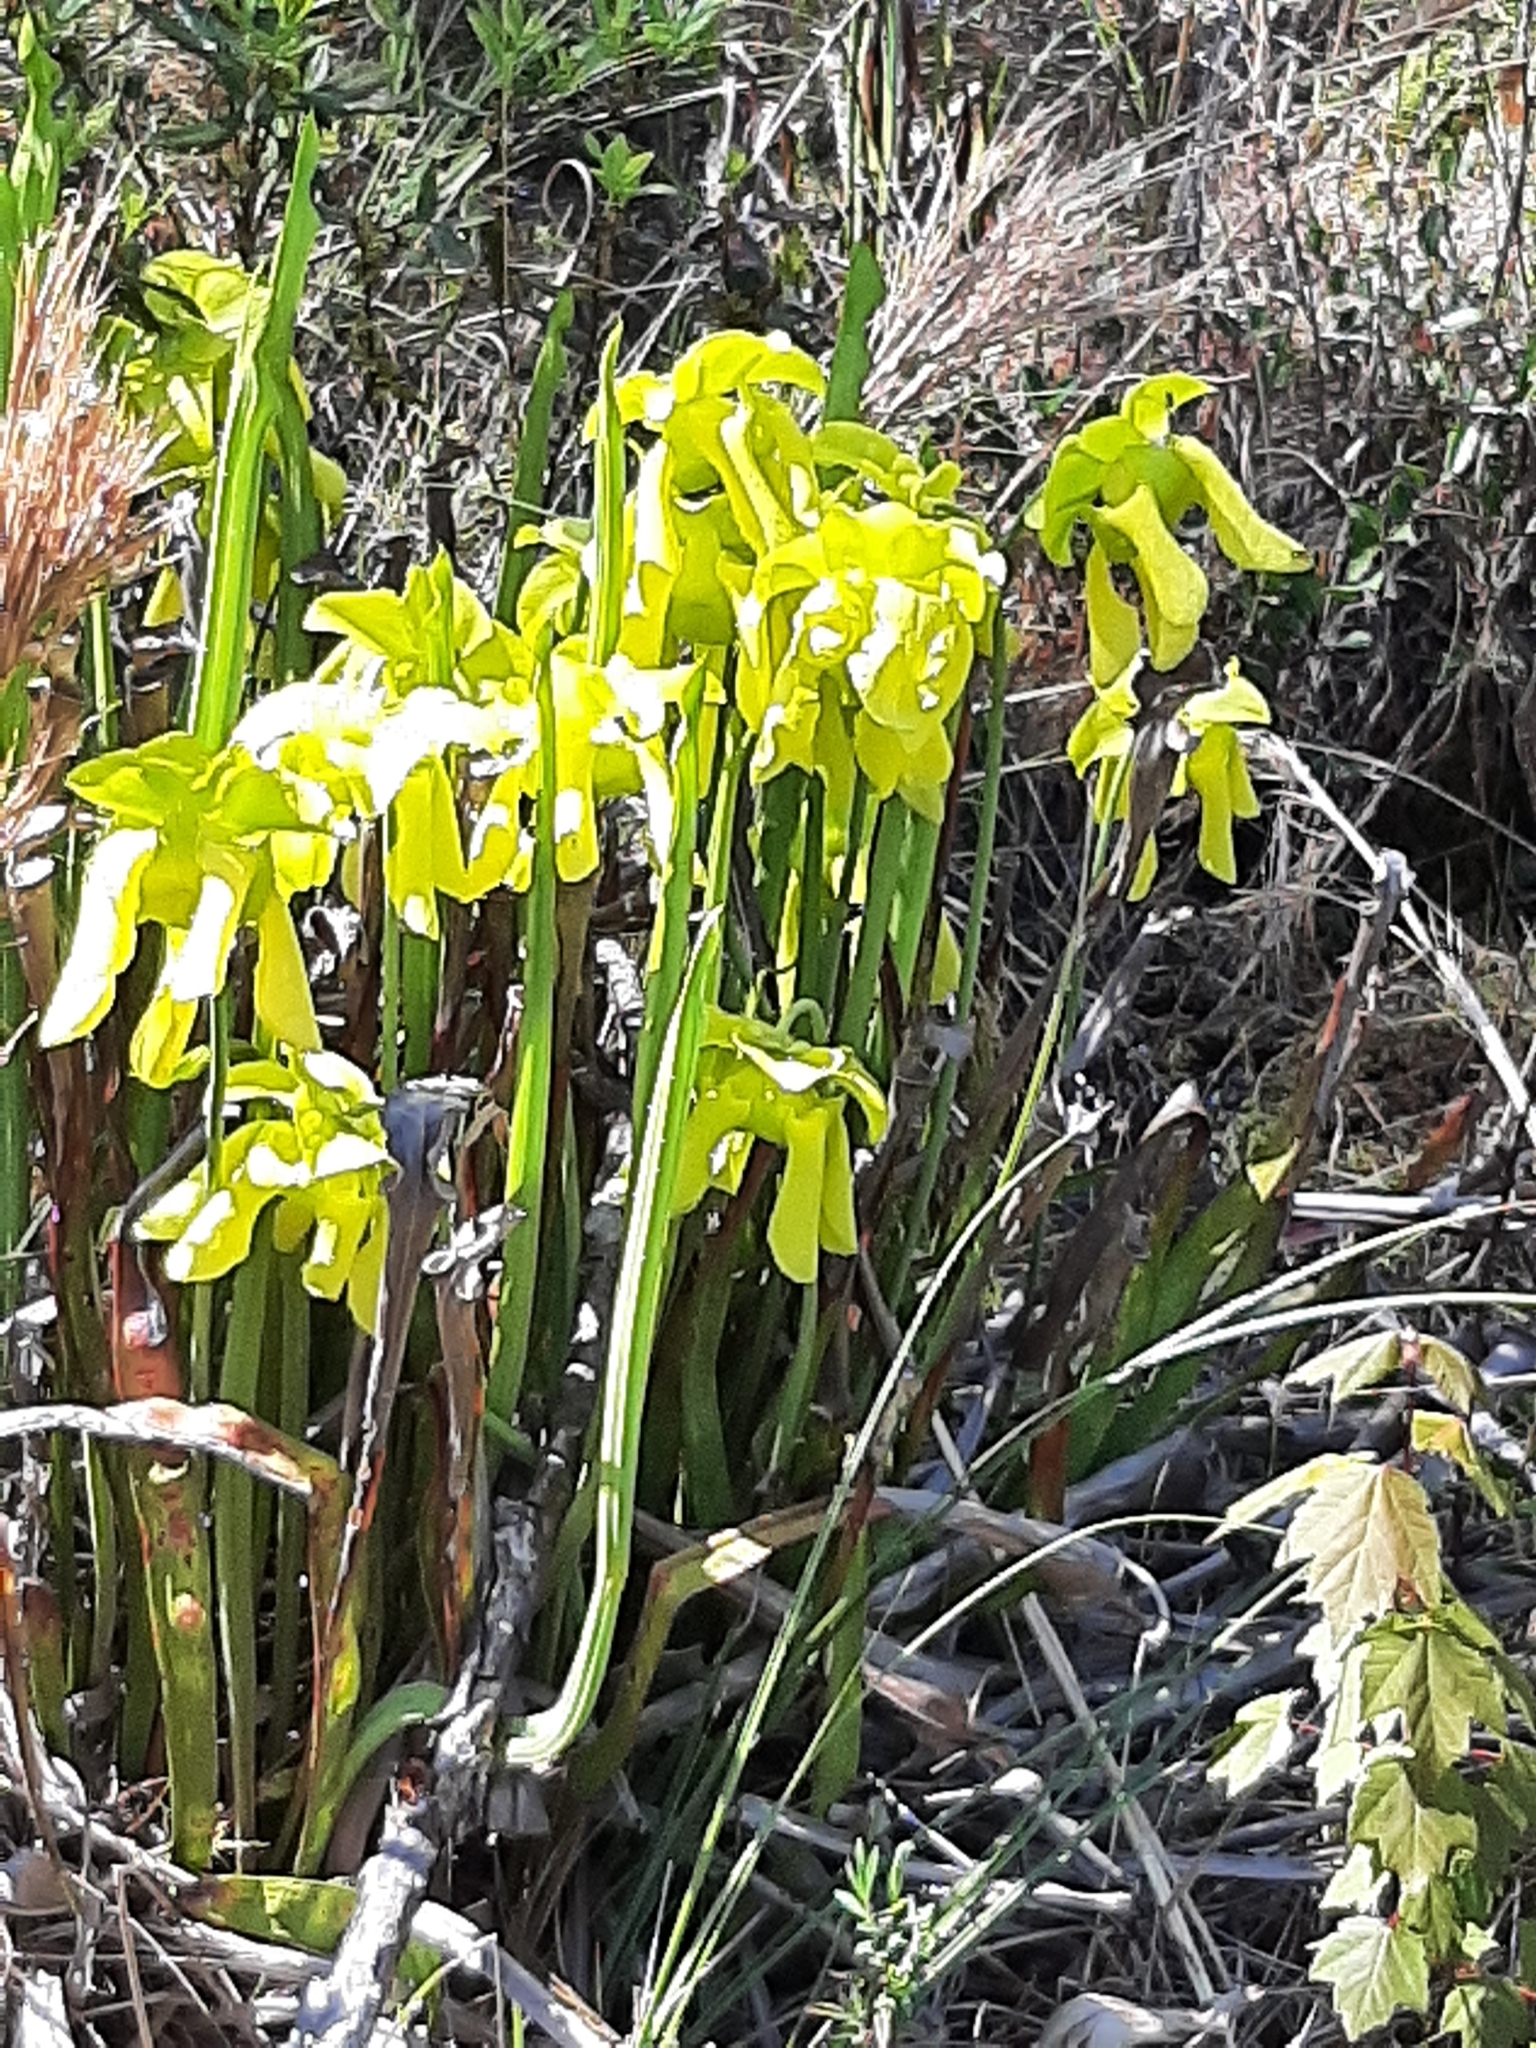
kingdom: Plantae
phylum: Tracheophyta
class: Magnoliopsida
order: Ericales
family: Sarraceniaceae
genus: Sarracenia
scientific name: Sarracenia flava
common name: Trumpets
